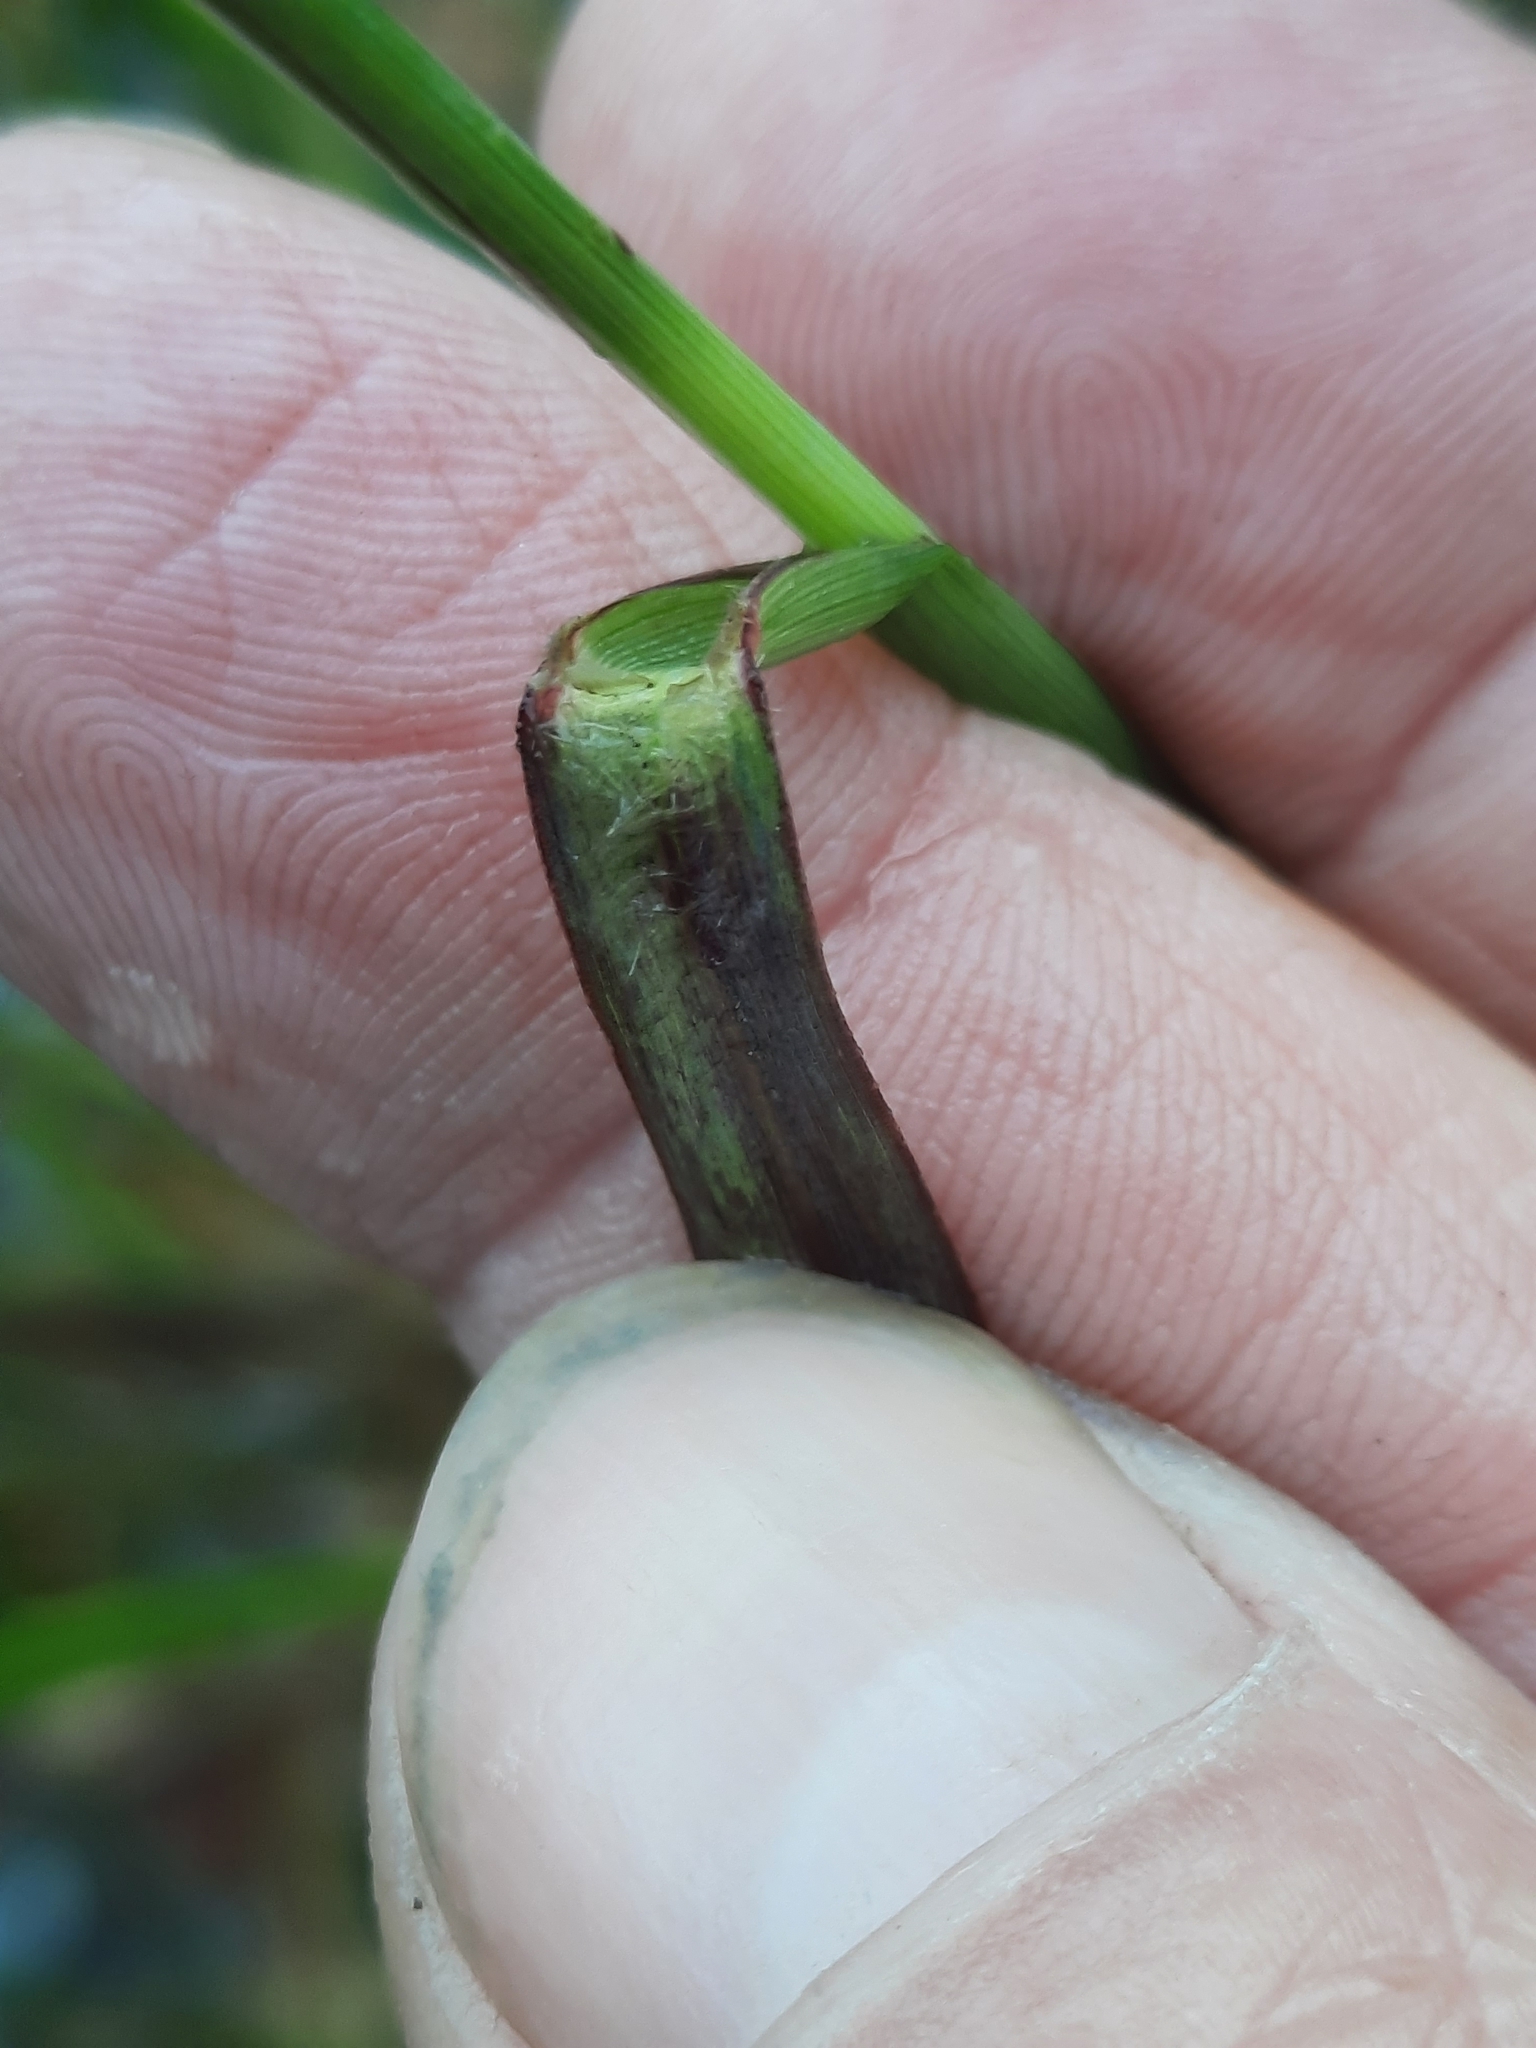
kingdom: Plantae
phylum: Tracheophyta
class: Liliopsida
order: Poales
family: Poaceae
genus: Panicum
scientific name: Panicum virgatum
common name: Switchgrass
